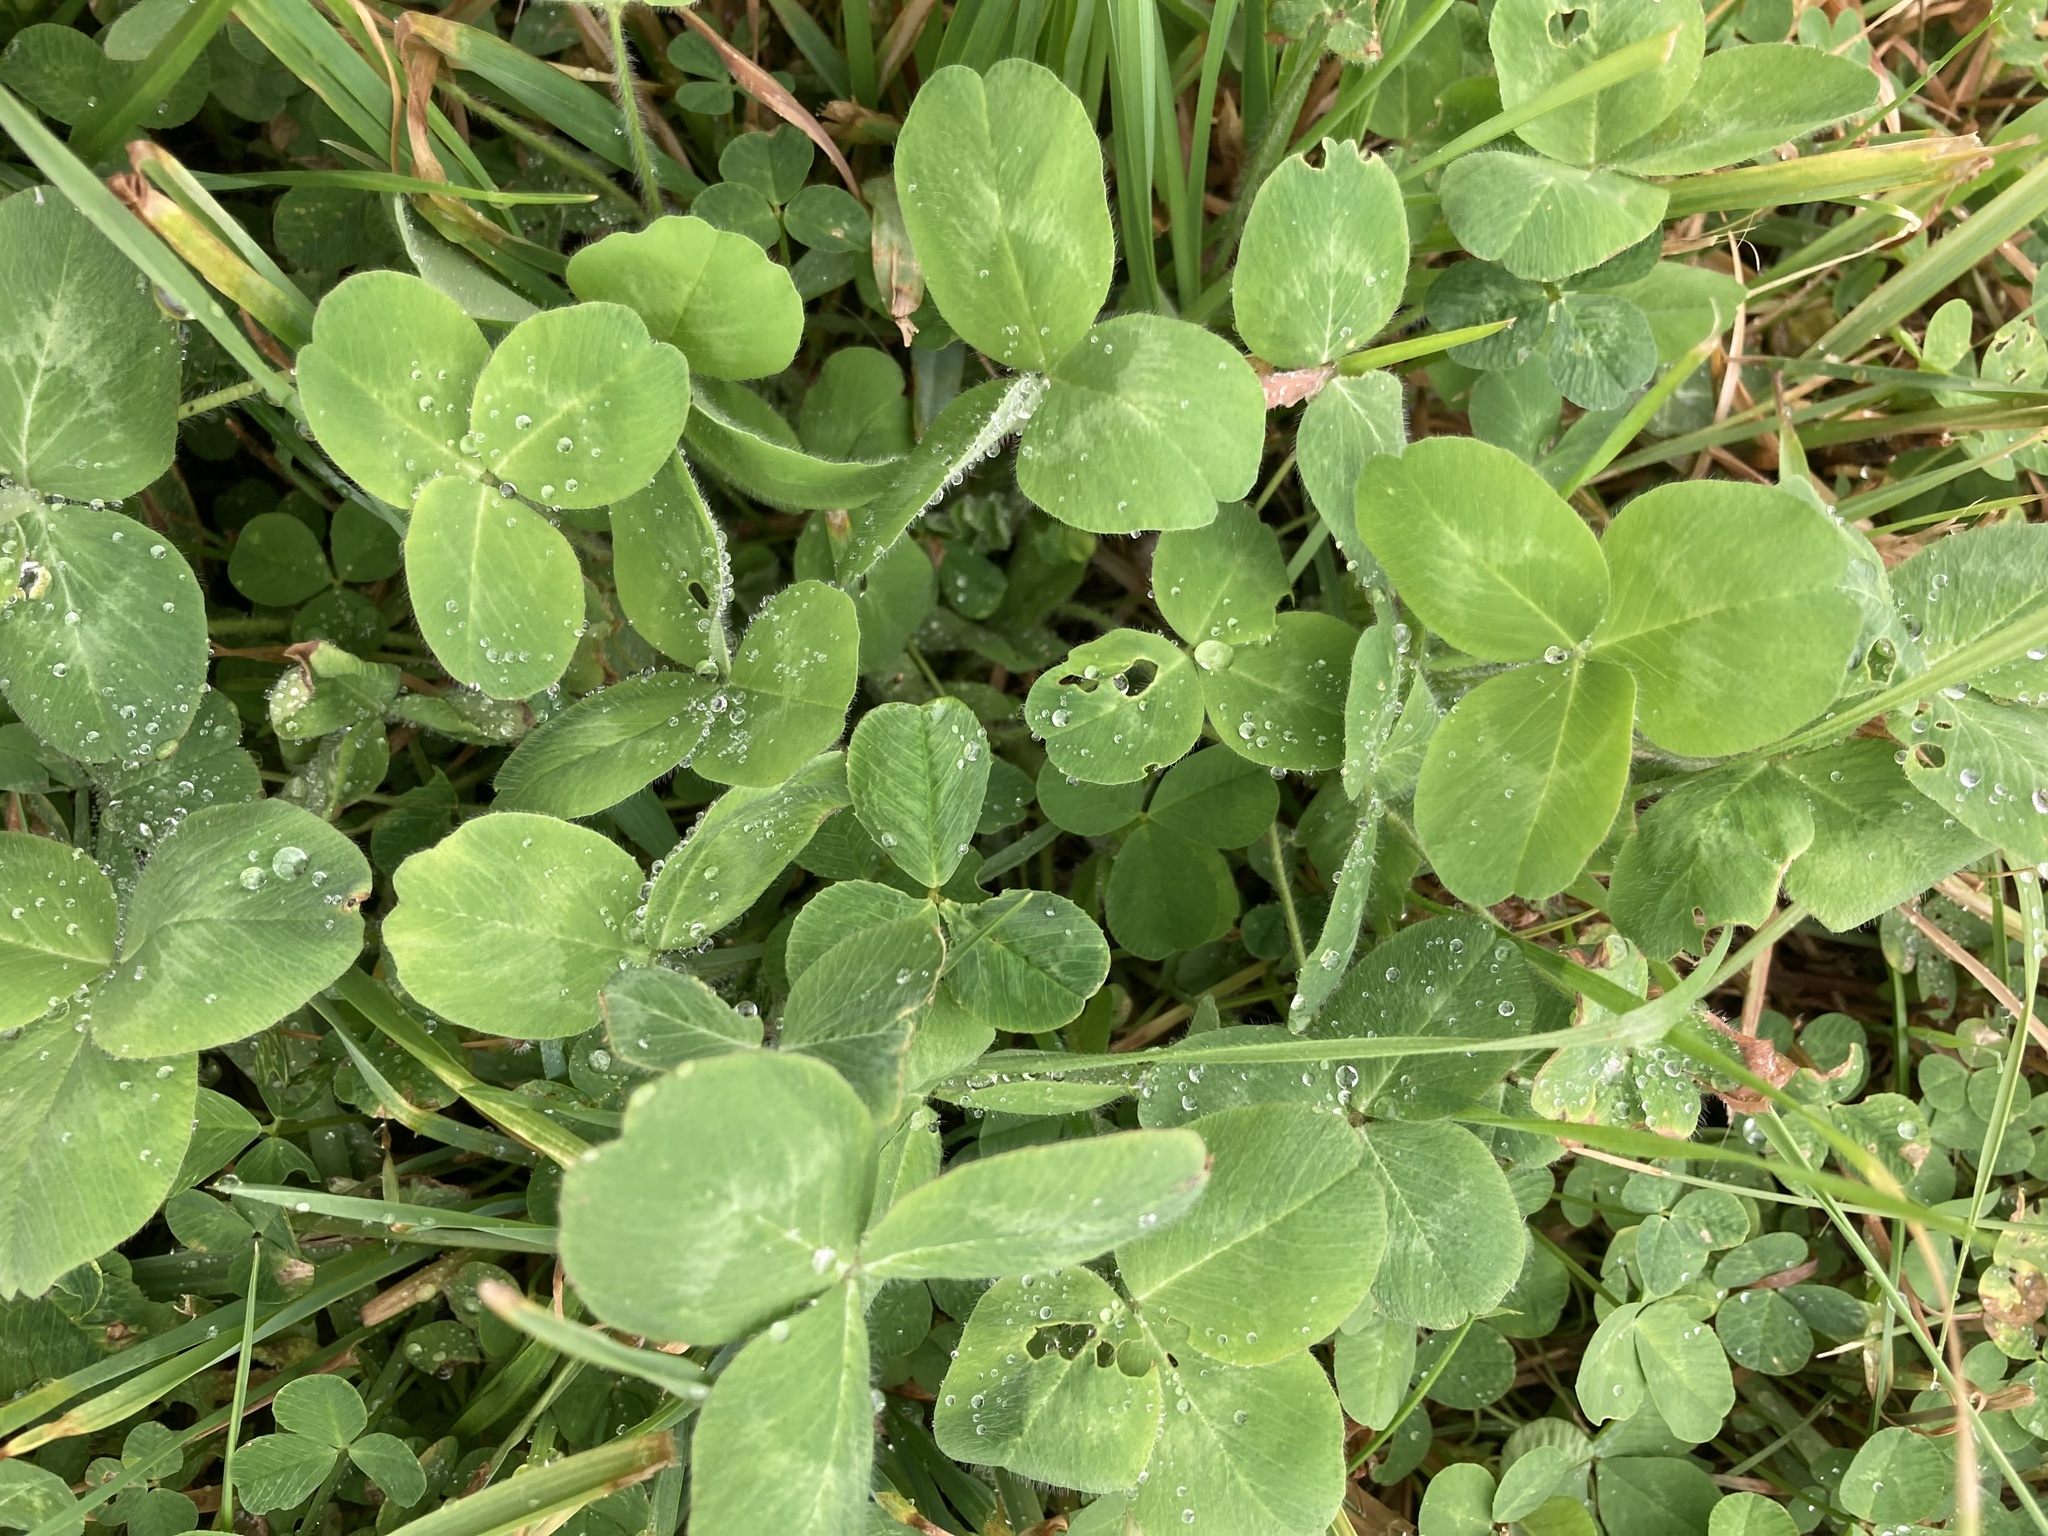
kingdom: Plantae
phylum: Tracheophyta
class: Magnoliopsida
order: Fabales
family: Fabaceae
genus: Trifolium
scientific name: Trifolium repens
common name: White clover
